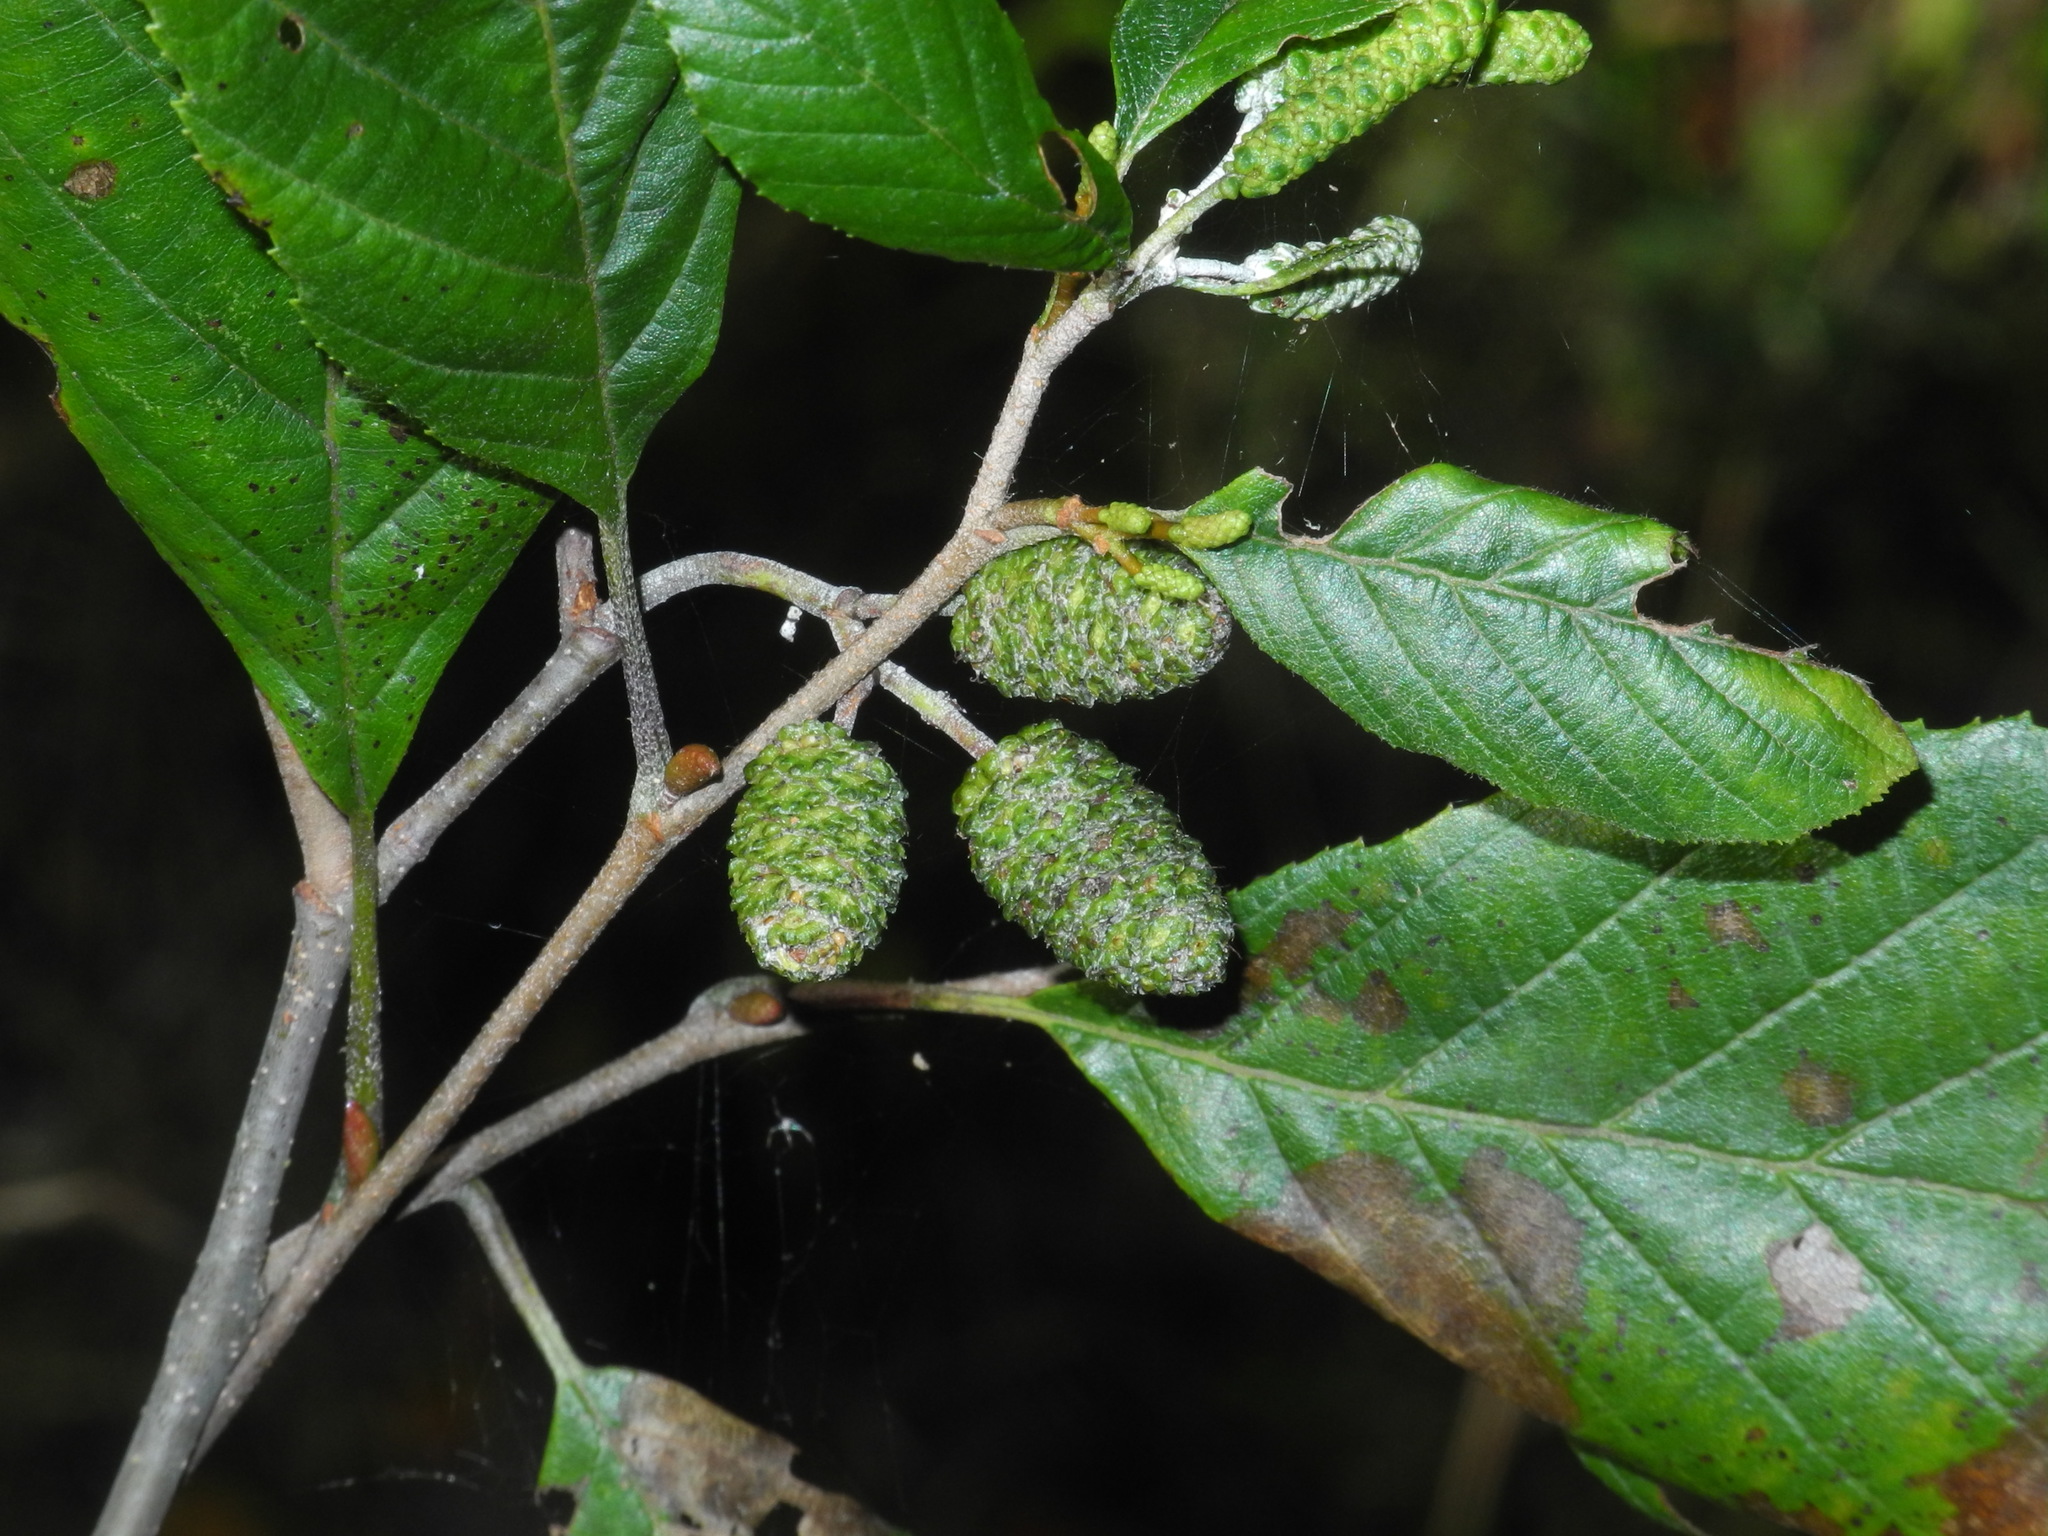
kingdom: Plantae
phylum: Tracheophyta
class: Magnoliopsida
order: Fagales
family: Betulaceae
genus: Alnus
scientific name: Alnus serrulata
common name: Hazel alder
